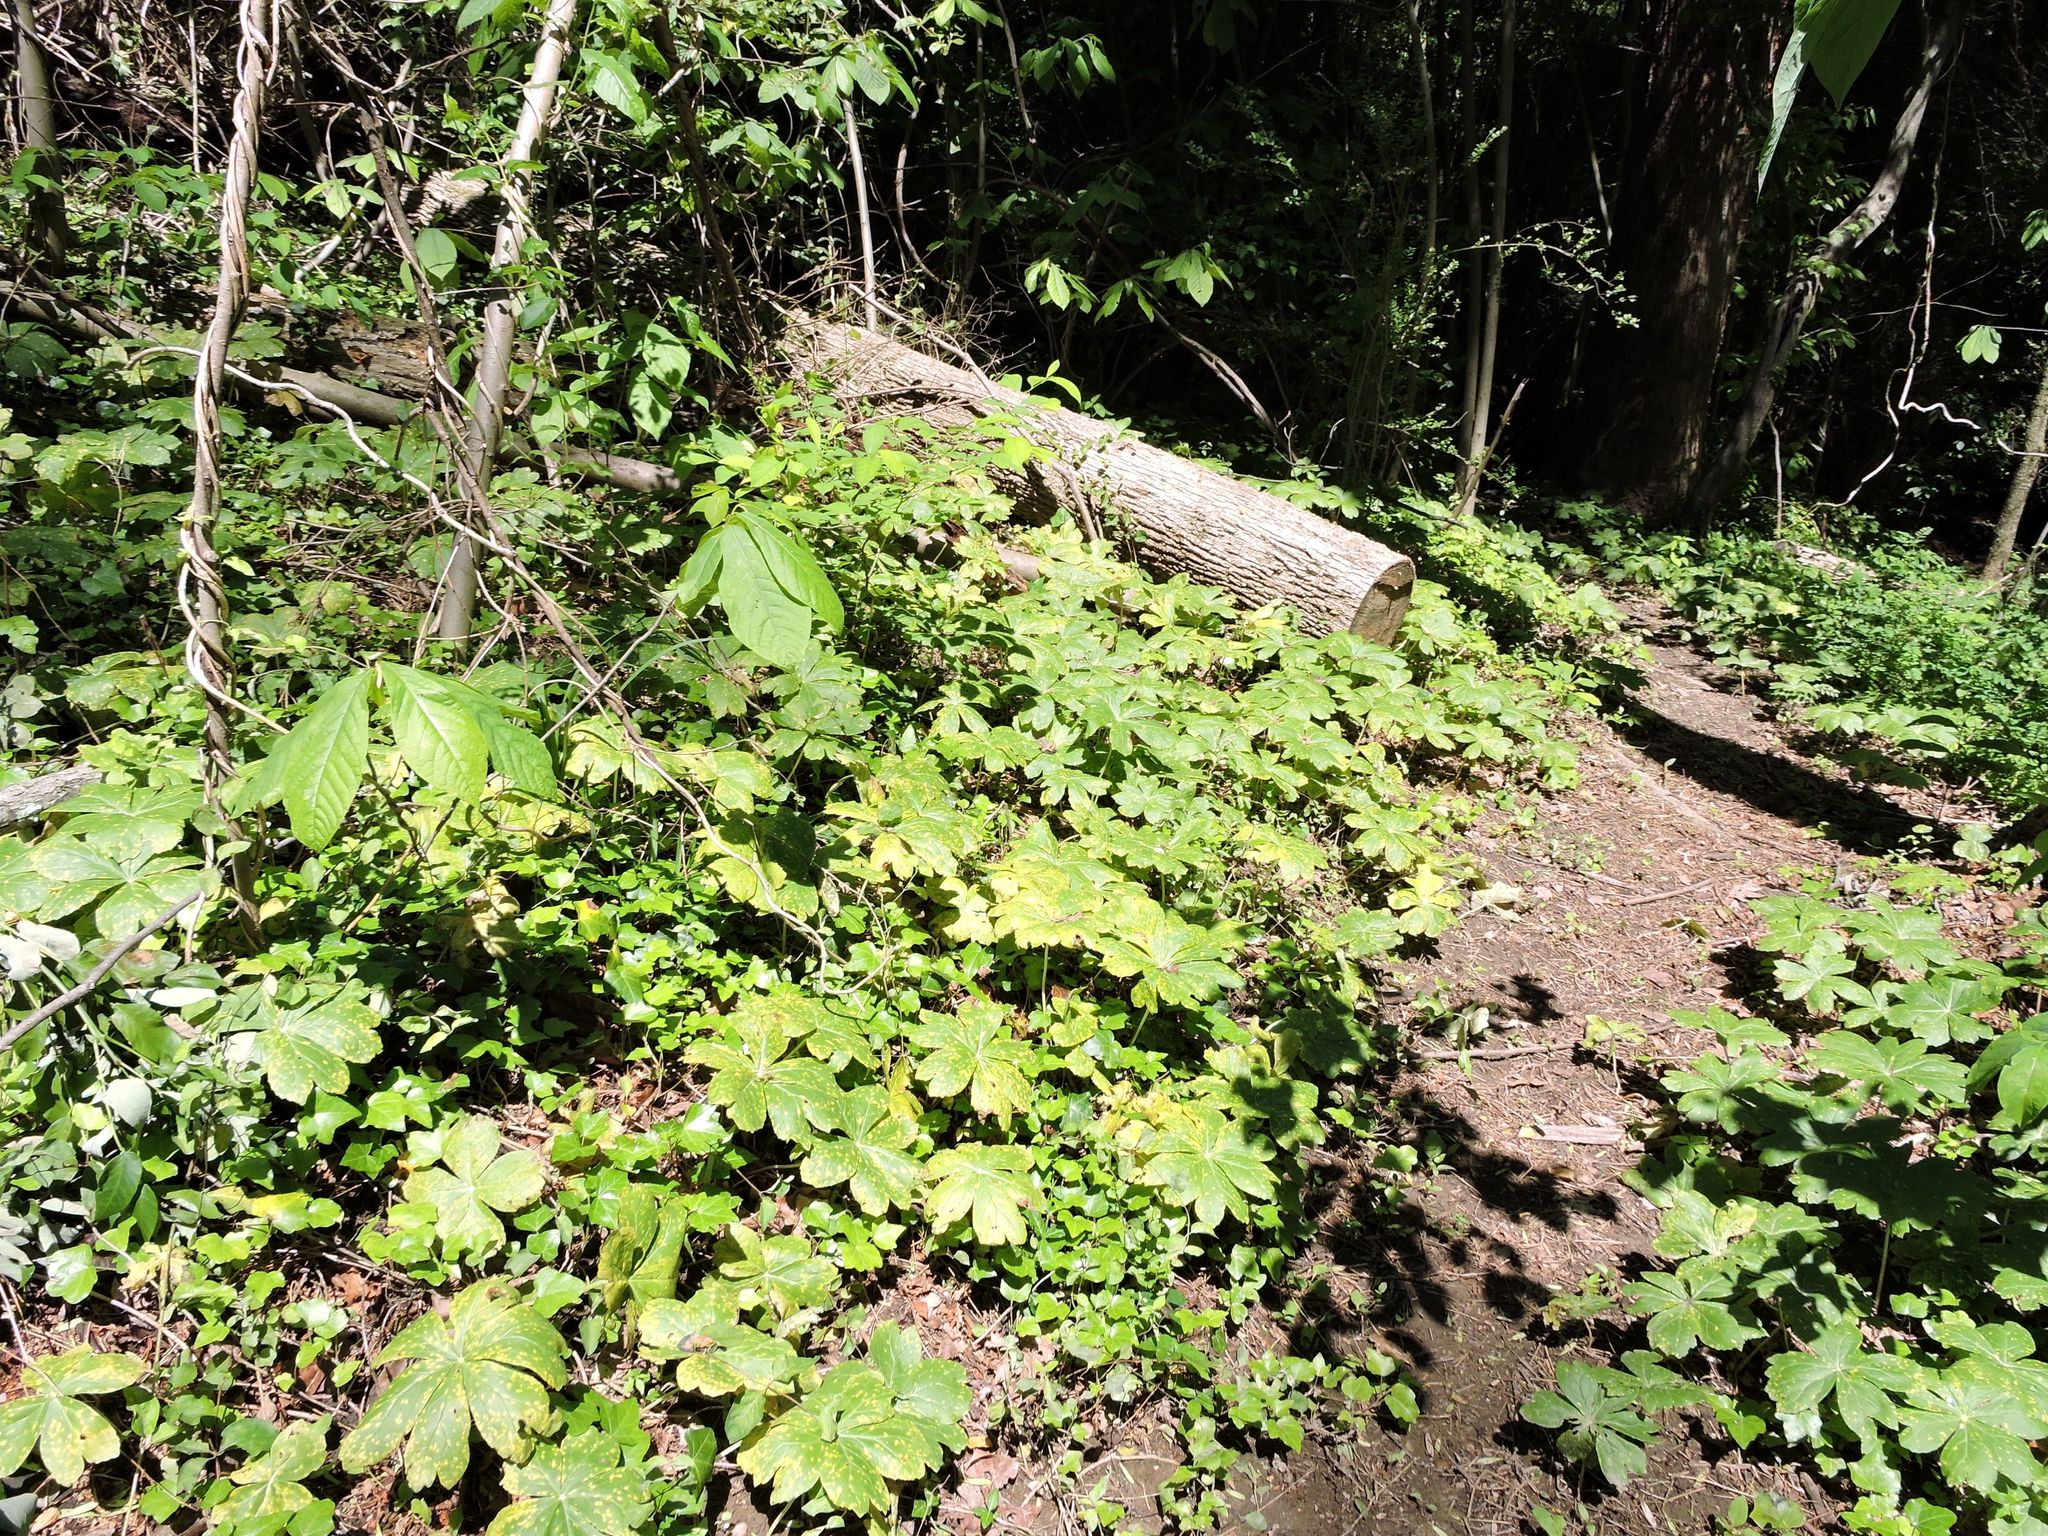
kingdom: Plantae
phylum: Tracheophyta
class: Magnoliopsida
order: Ranunculales
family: Berberidaceae
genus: Podophyllum
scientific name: Podophyllum peltatum
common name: Wild mandrake
